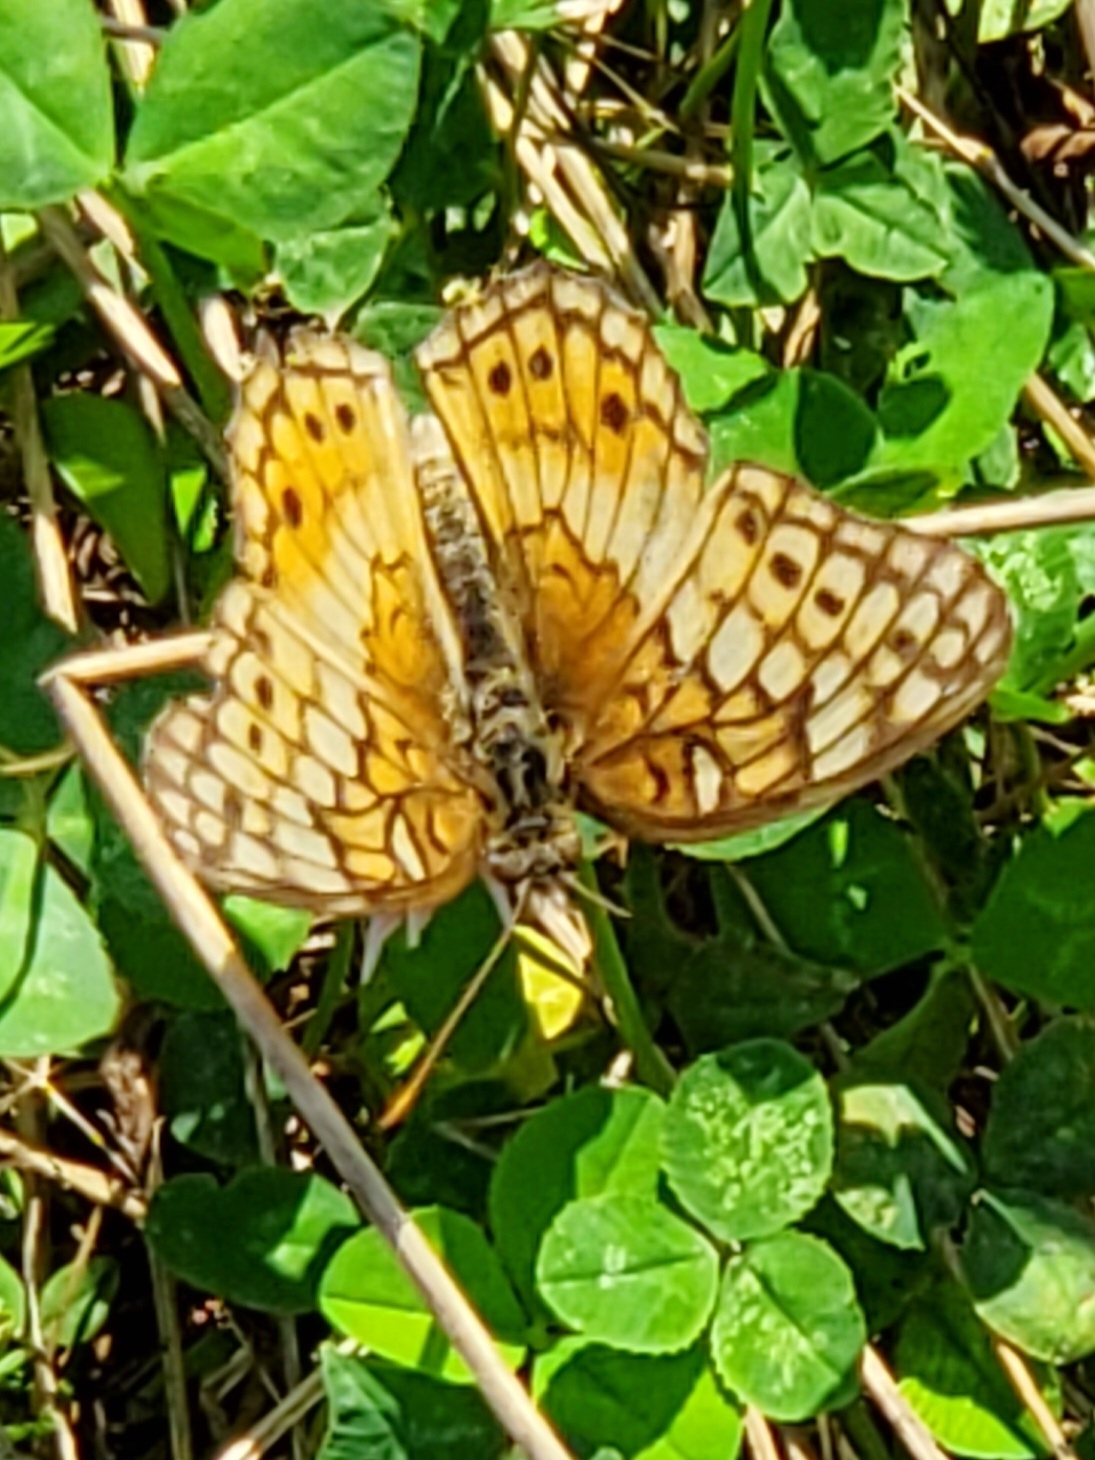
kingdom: Animalia
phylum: Arthropoda
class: Insecta
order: Lepidoptera
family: Nymphalidae
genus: Euptoieta
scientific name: Euptoieta claudia
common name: Variegated fritillary
